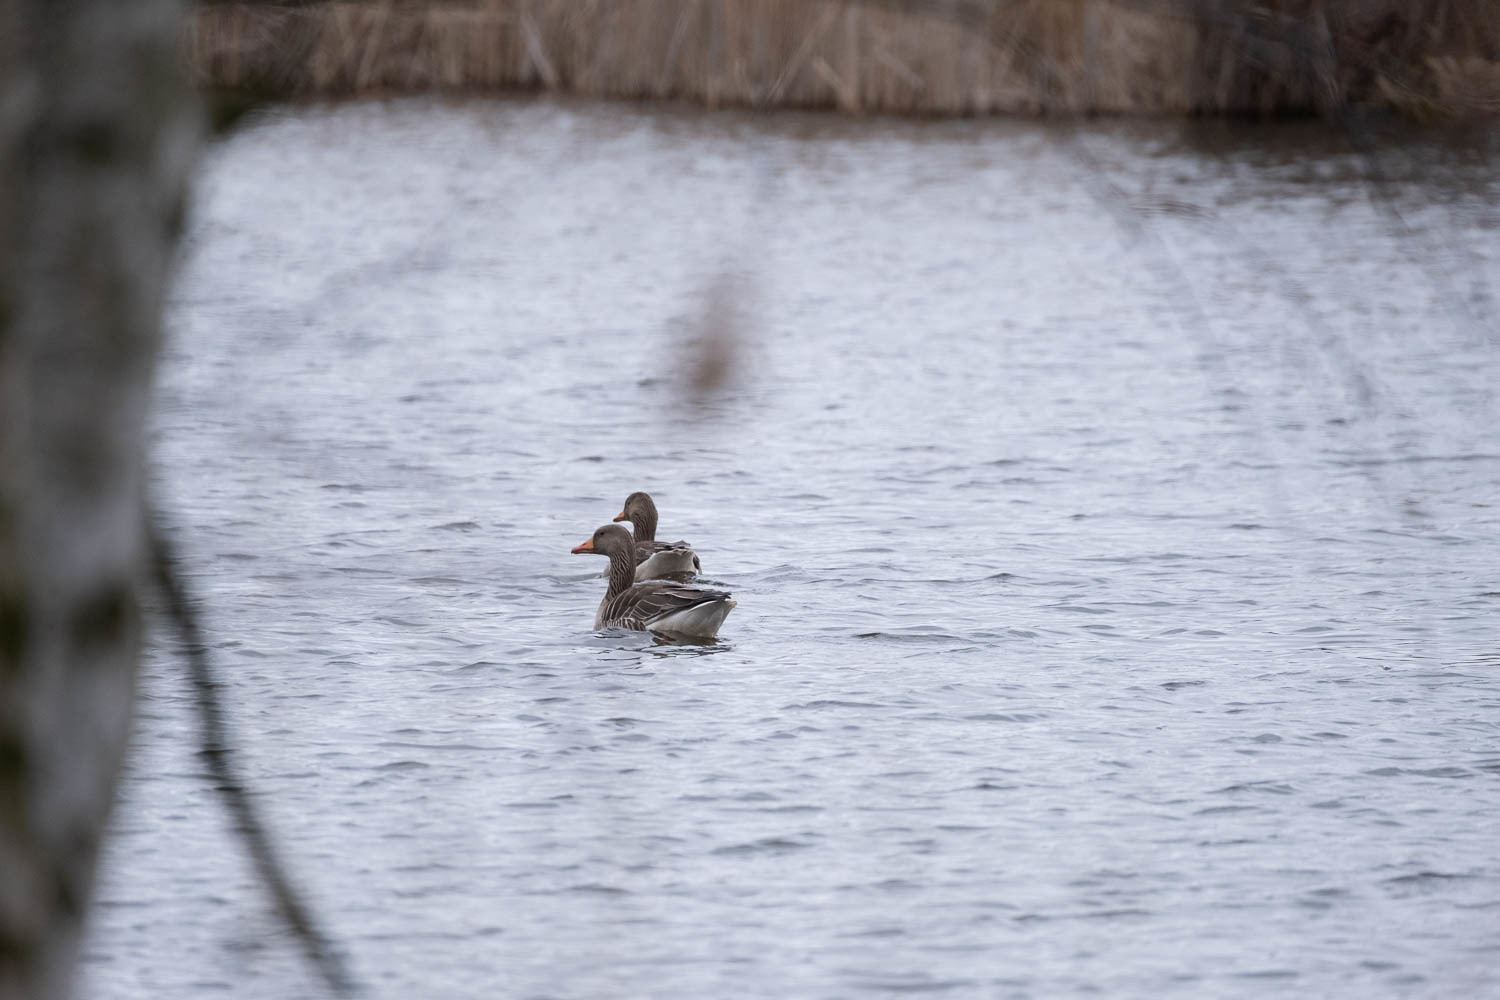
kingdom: Animalia
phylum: Chordata
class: Aves
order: Anseriformes
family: Anatidae
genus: Anser
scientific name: Anser anser
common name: Greylag goose
